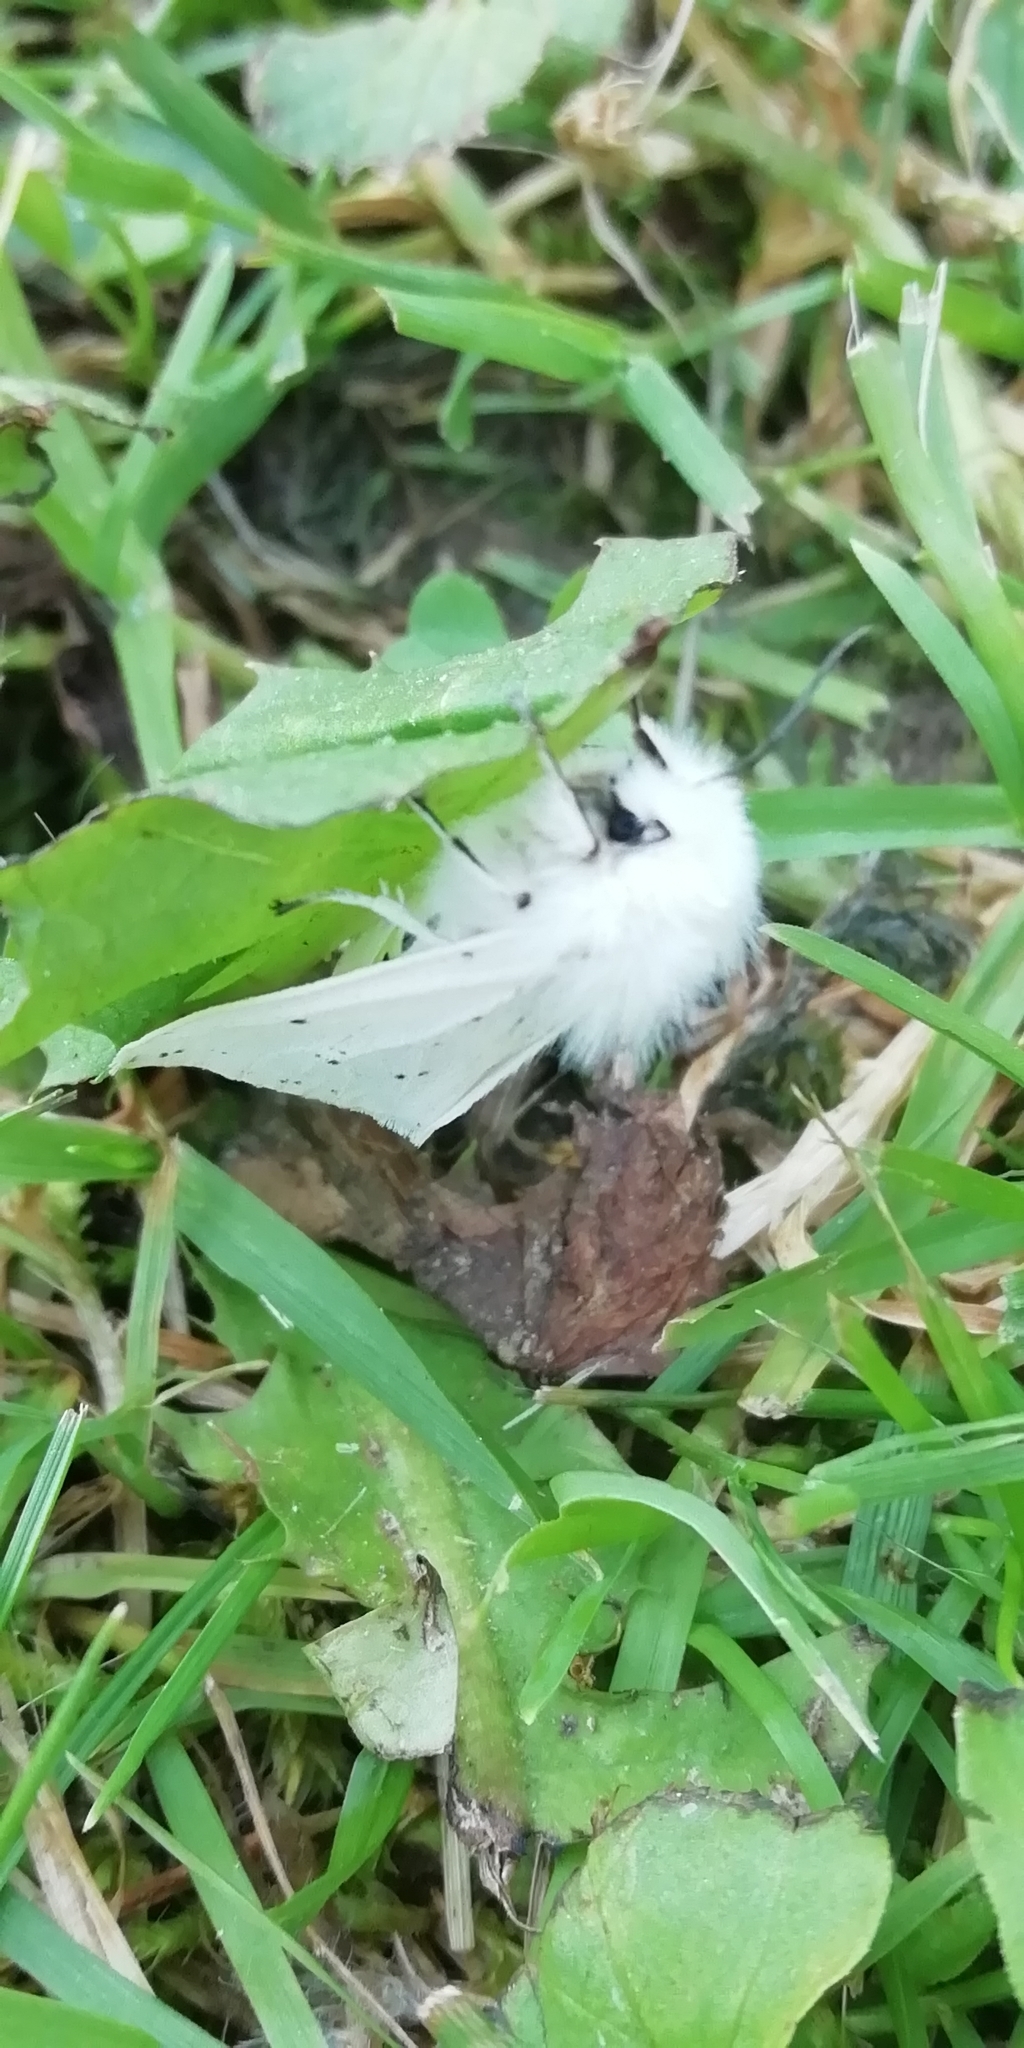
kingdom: Animalia
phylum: Arthropoda
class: Insecta
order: Lepidoptera
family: Erebidae
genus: Spilosoma
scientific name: Spilosoma lubricipeda
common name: White ermine
